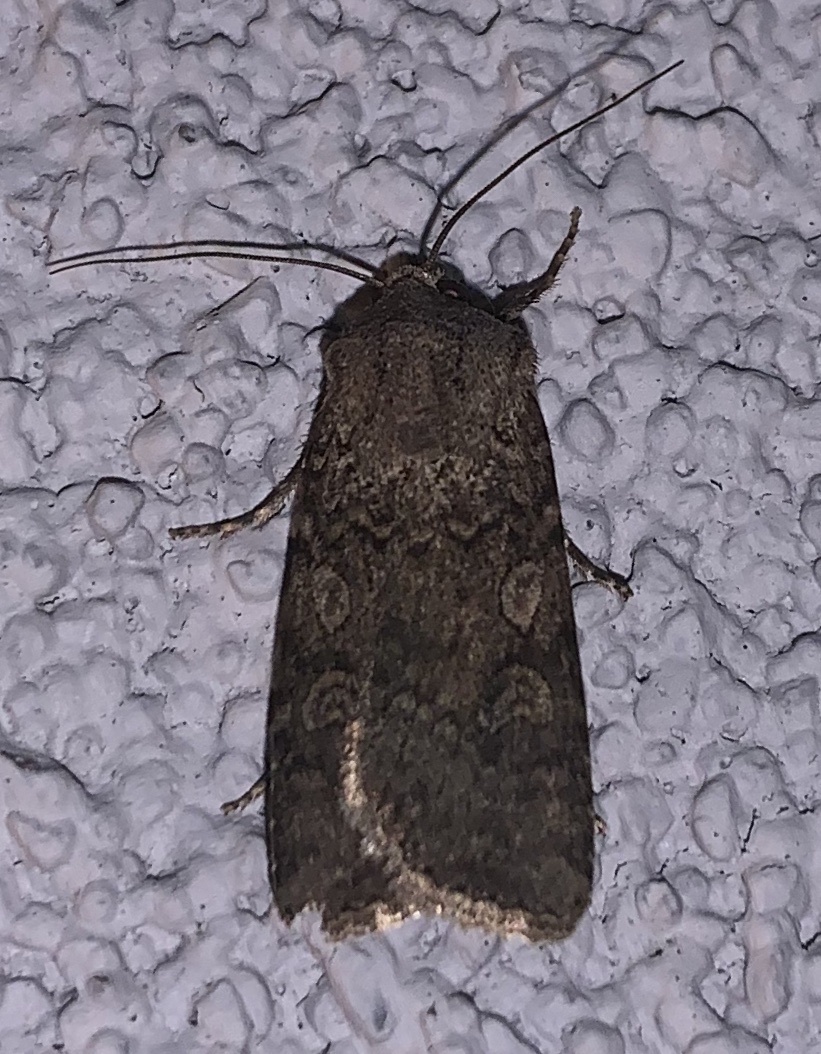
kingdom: Animalia
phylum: Arthropoda
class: Insecta
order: Lepidoptera
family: Noctuidae
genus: Euxoa
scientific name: Euxoa messoria
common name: Darksided cutworm
